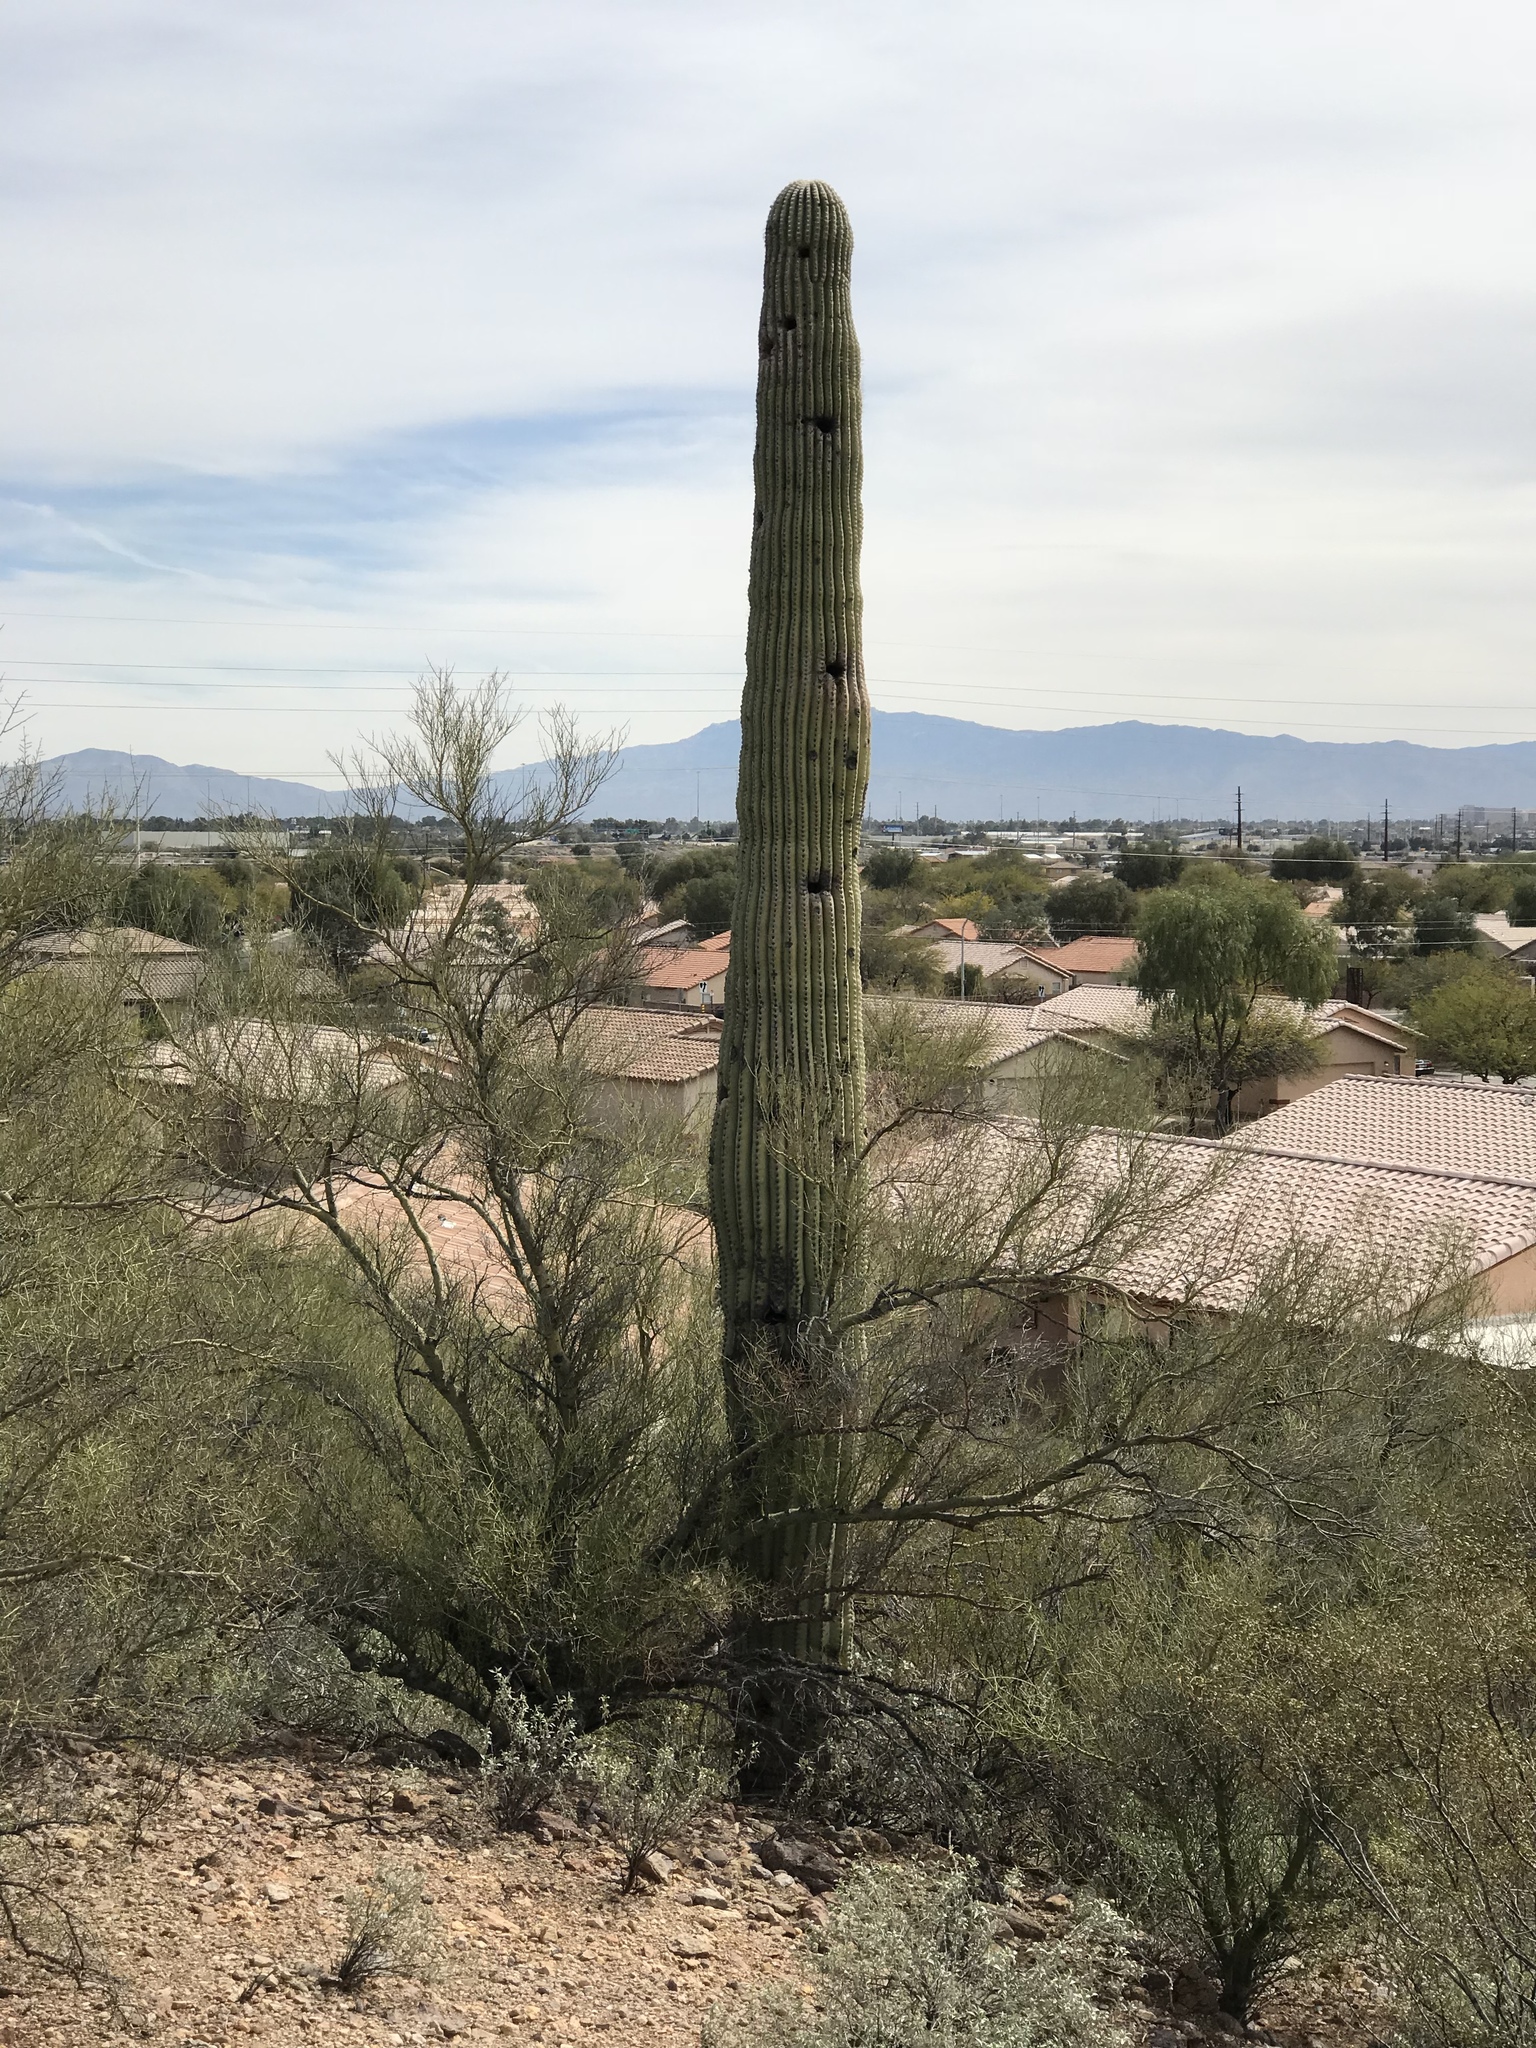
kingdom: Plantae
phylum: Tracheophyta
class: Magnoliopsida
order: Caryophyllales
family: Cactaceae
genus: Carnegiea
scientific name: Carnegiea gigantea
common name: Saguaro
